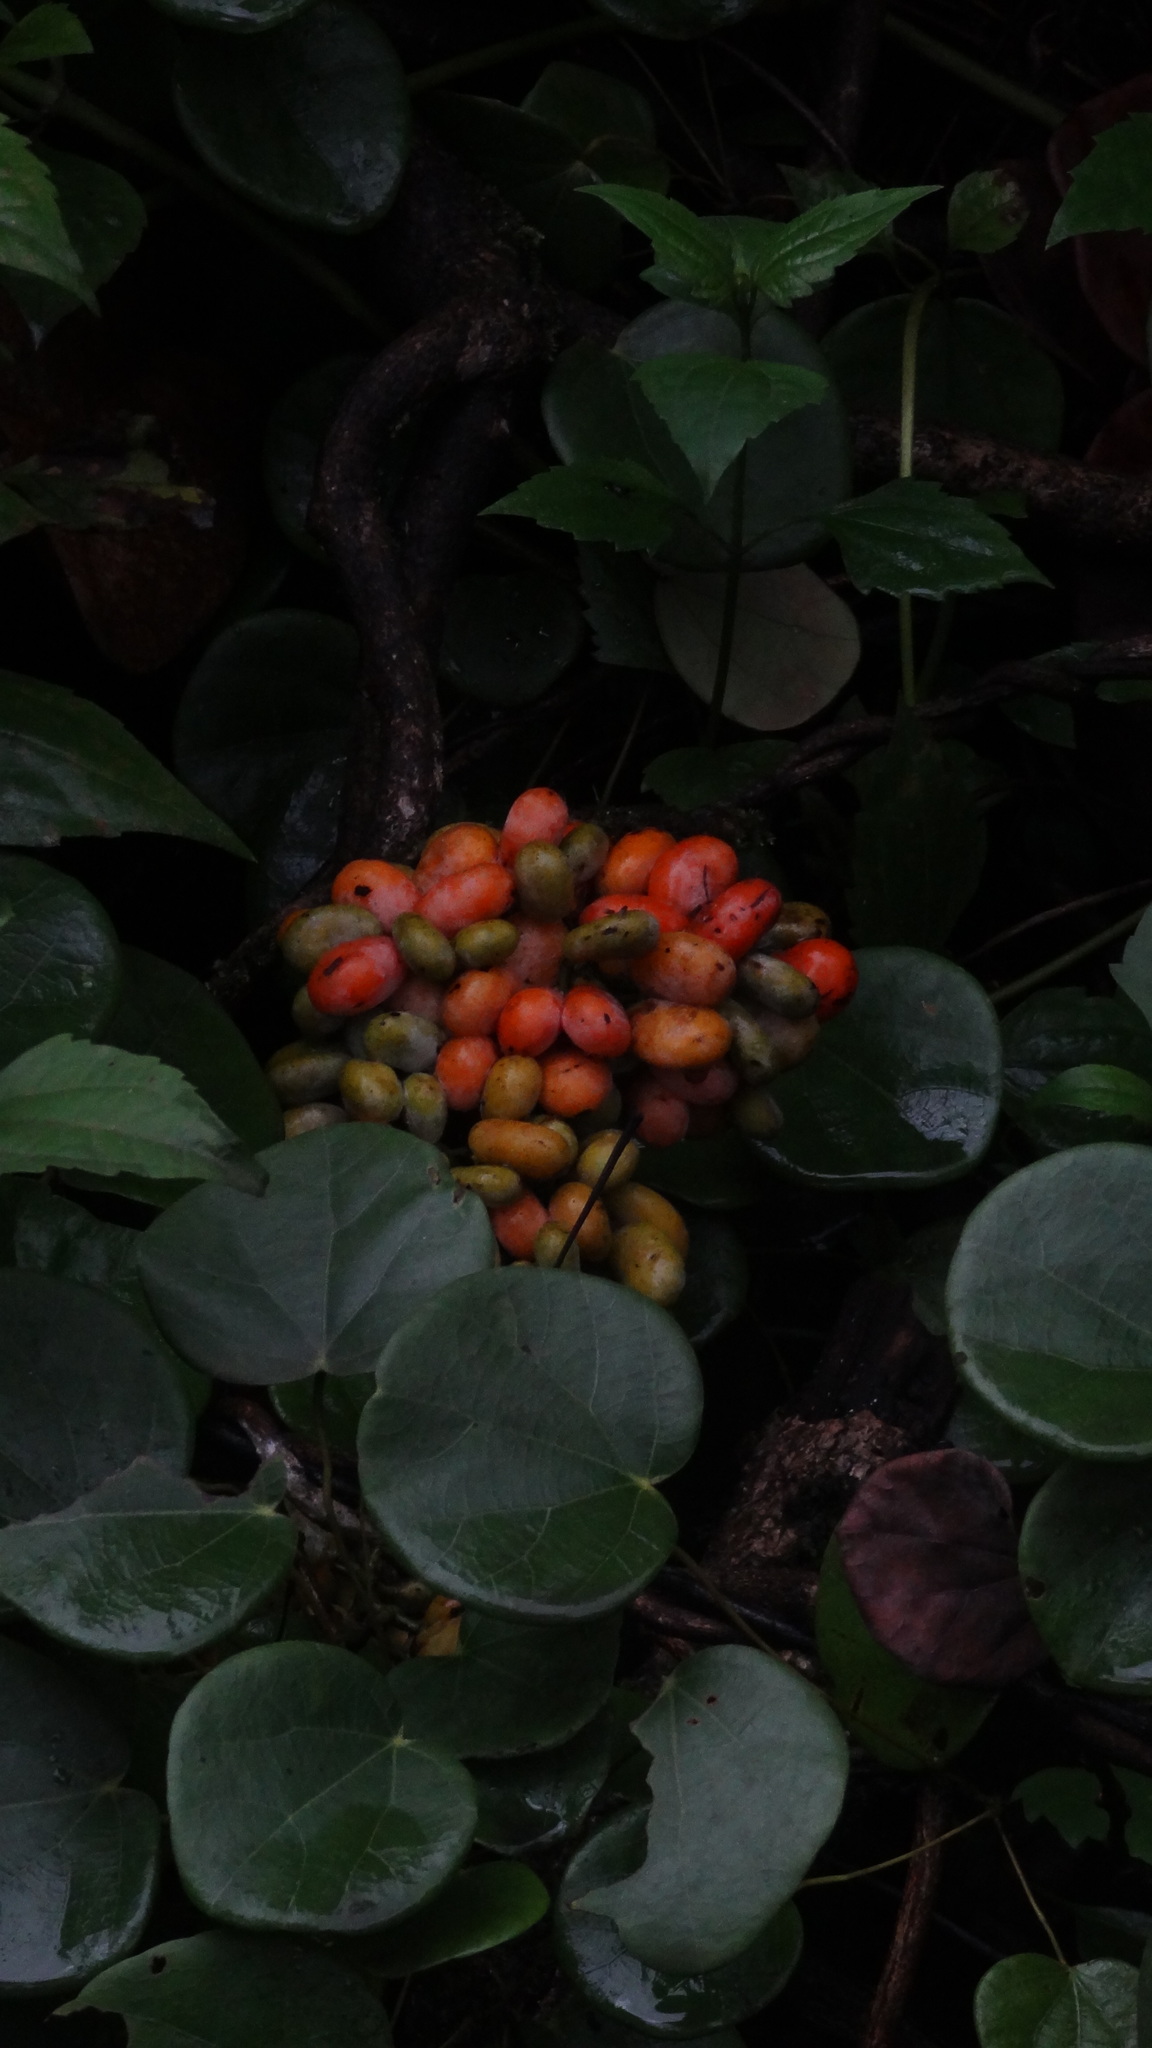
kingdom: Plantae
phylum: Tracheophyta
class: Magnoliopsida
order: Ranunculales
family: Menispermaceae
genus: Diploclisia
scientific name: Diploclisia glaucescens
